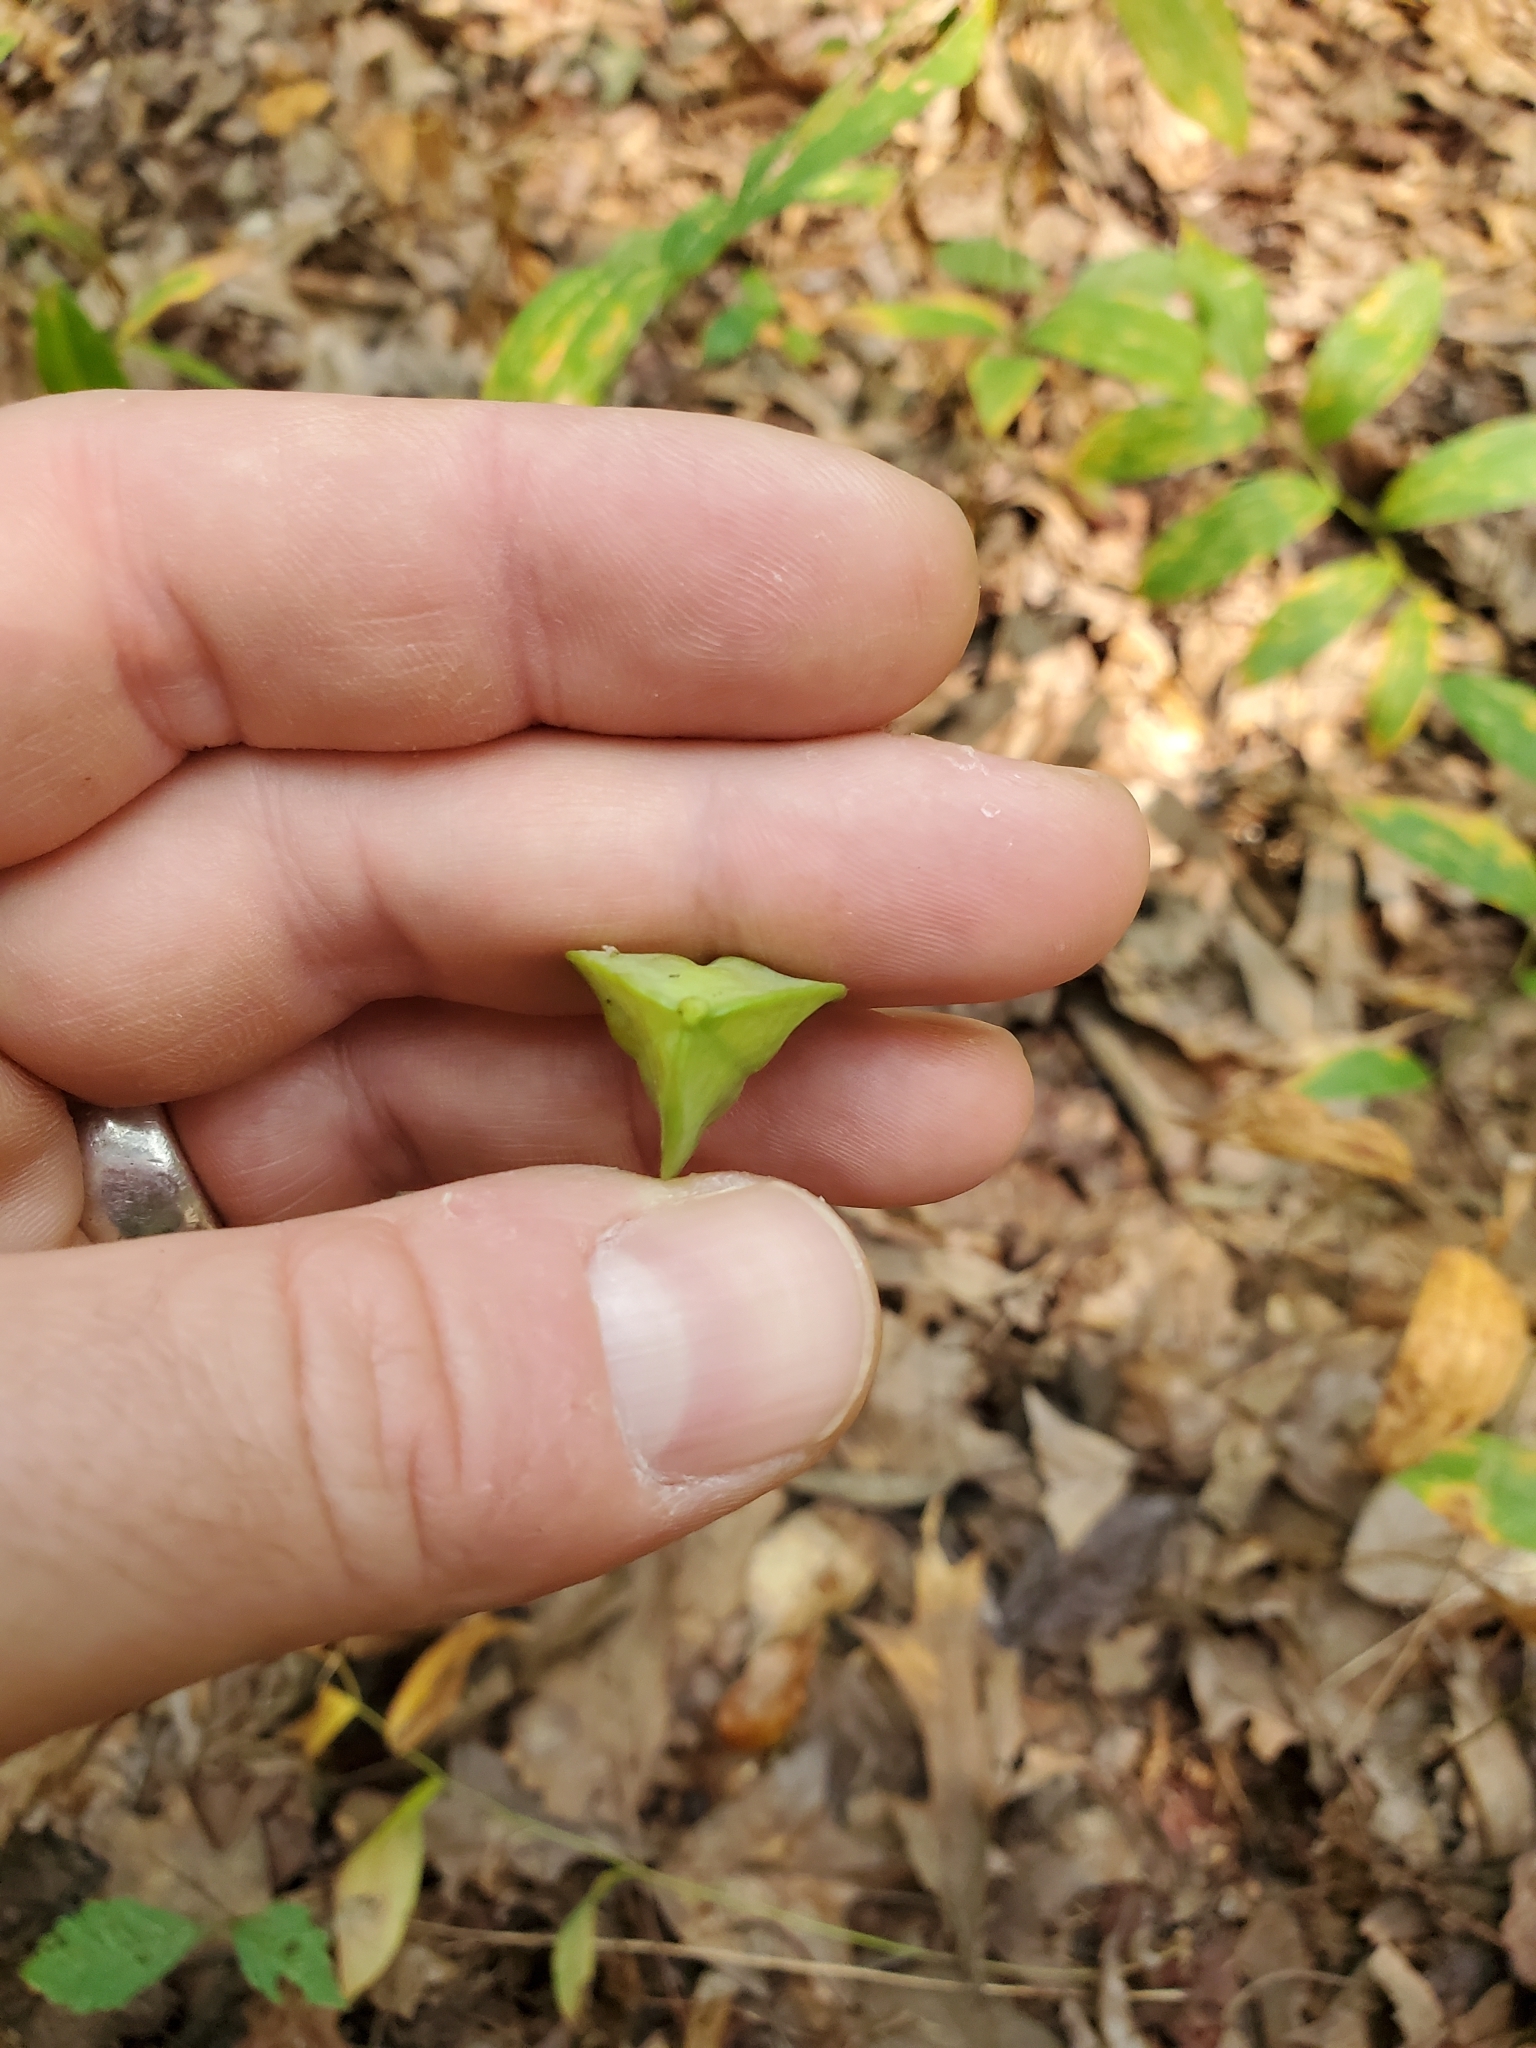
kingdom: Plantae
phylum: Tracheophyta
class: Liliopsida
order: Liliales
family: Colchicaceae
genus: Uvularia
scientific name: Uvularia sessilifolia
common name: Straw-lily
